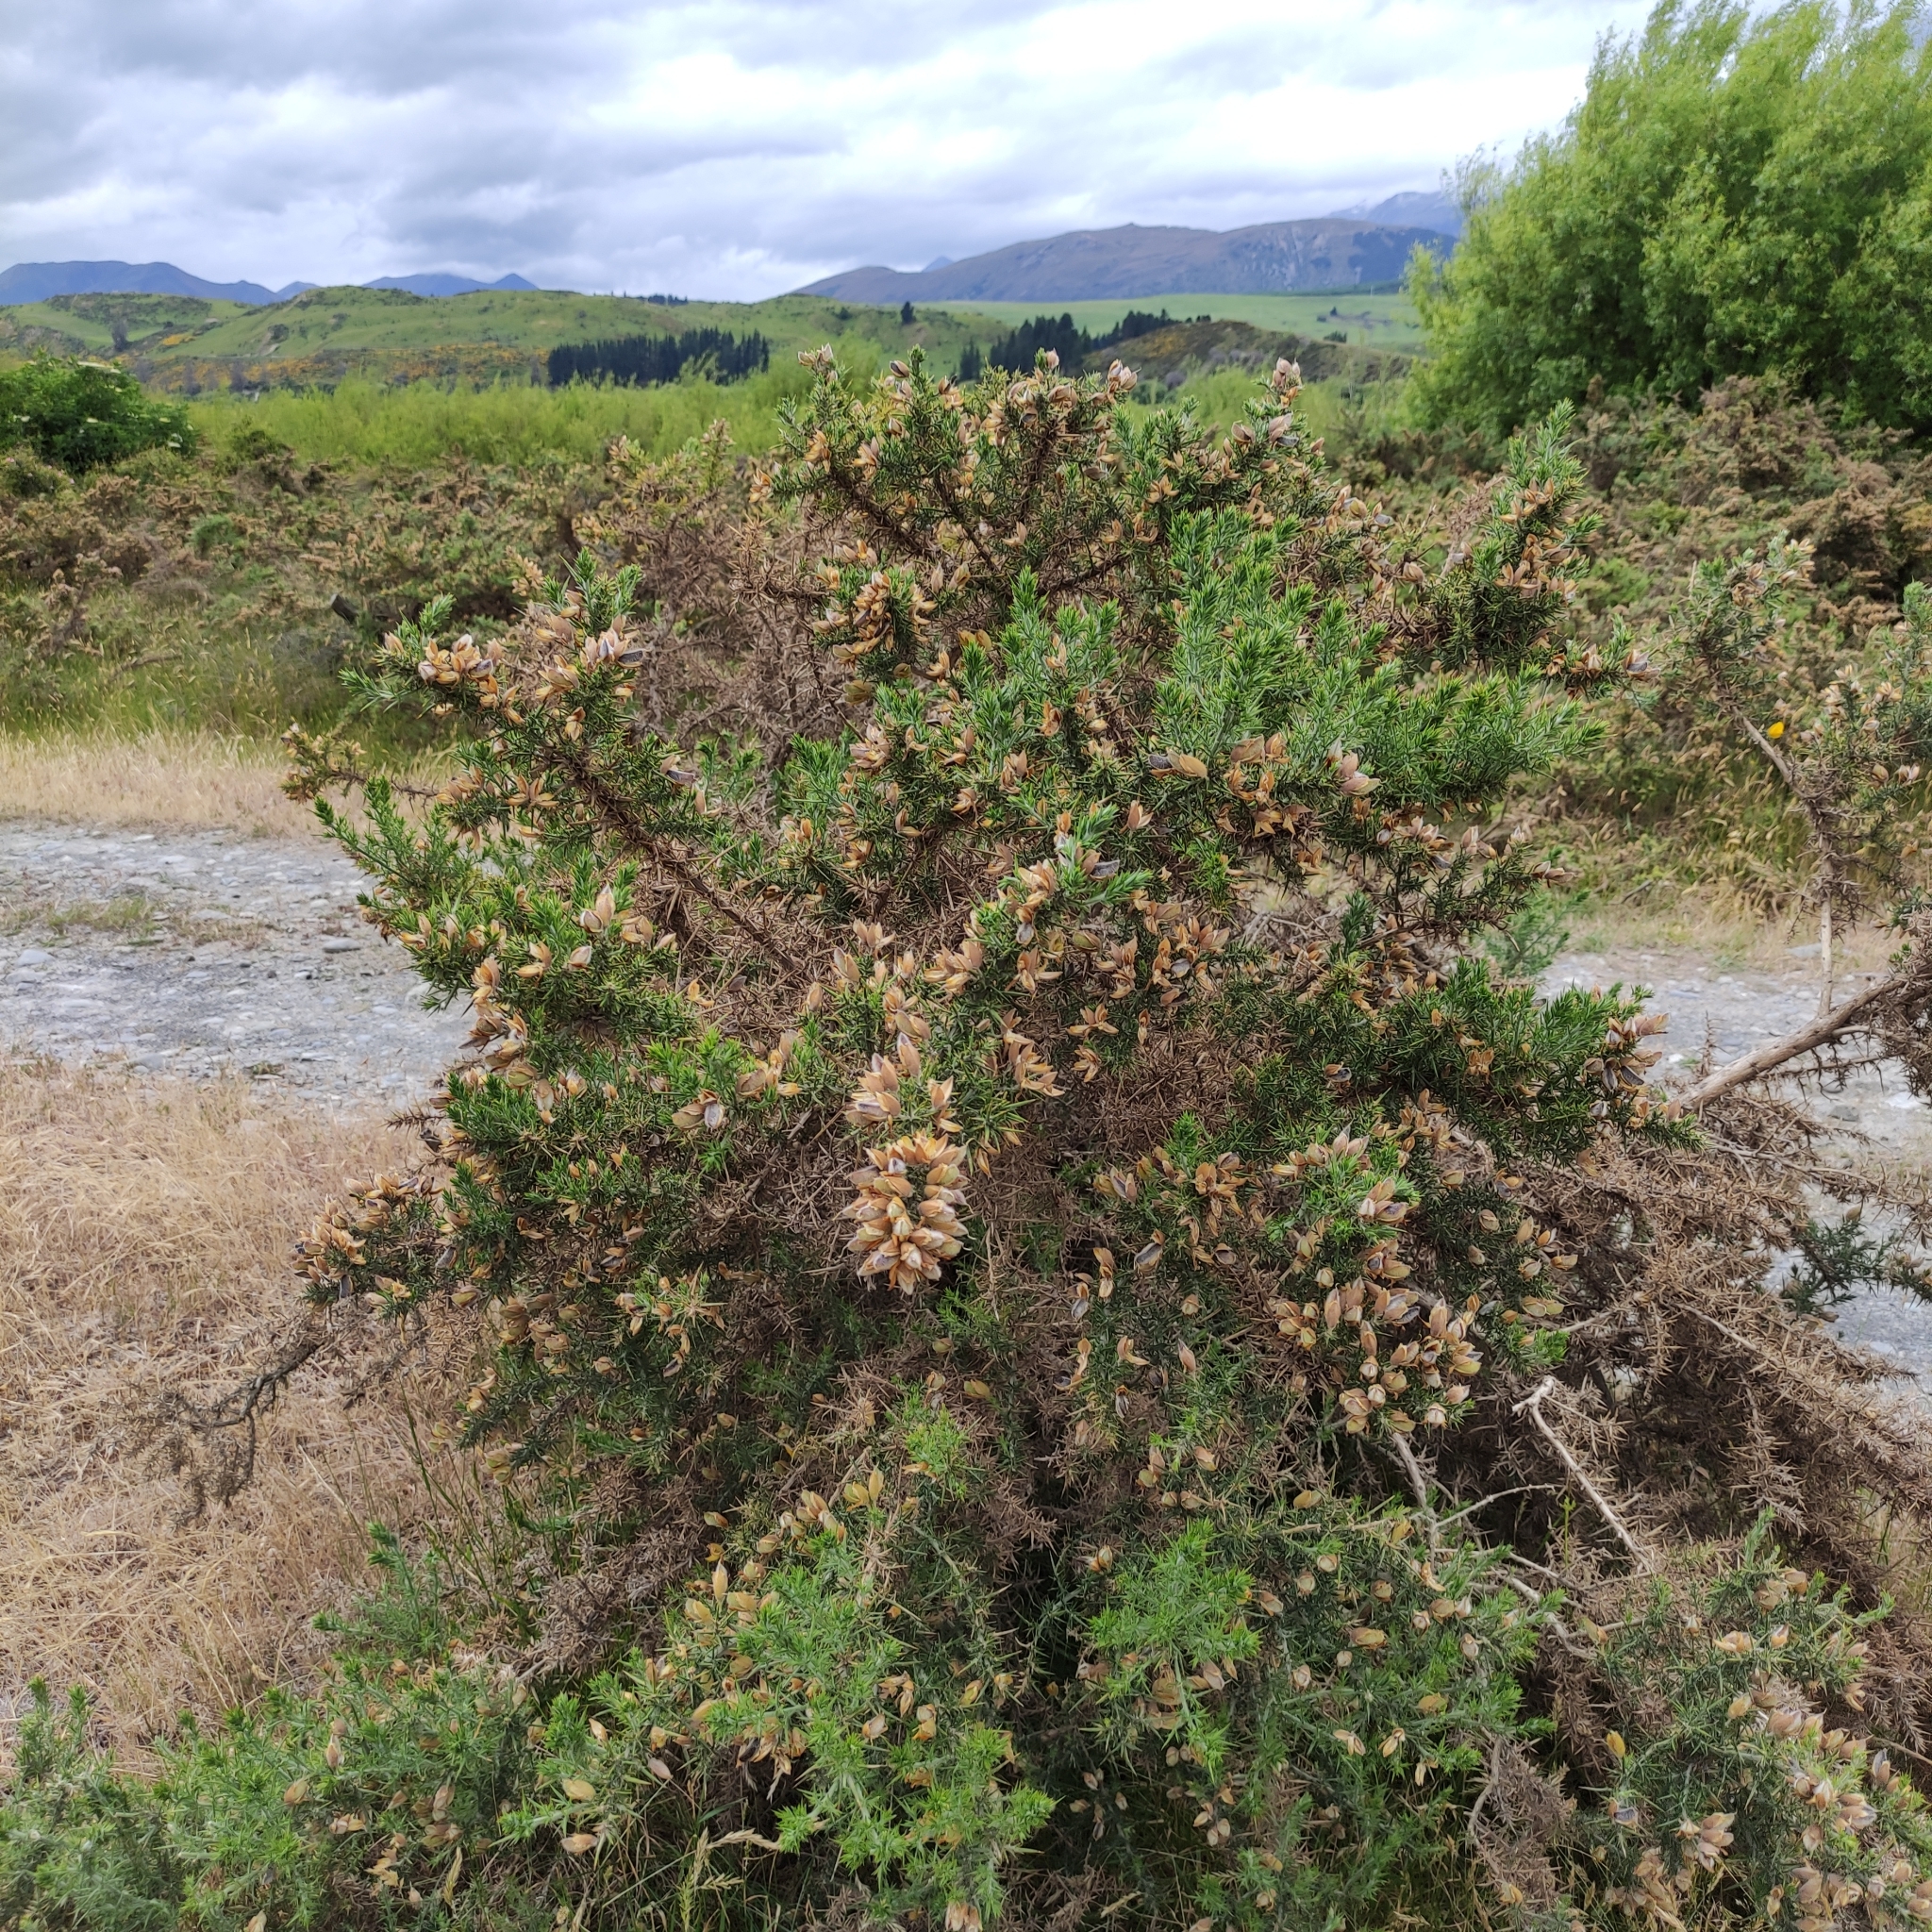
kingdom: Plantae
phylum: Tracheophyta
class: Magnoliopsida
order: Fabales
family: Fabaceae
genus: Ulex
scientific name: Ulex europaeus
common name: Common gorse
